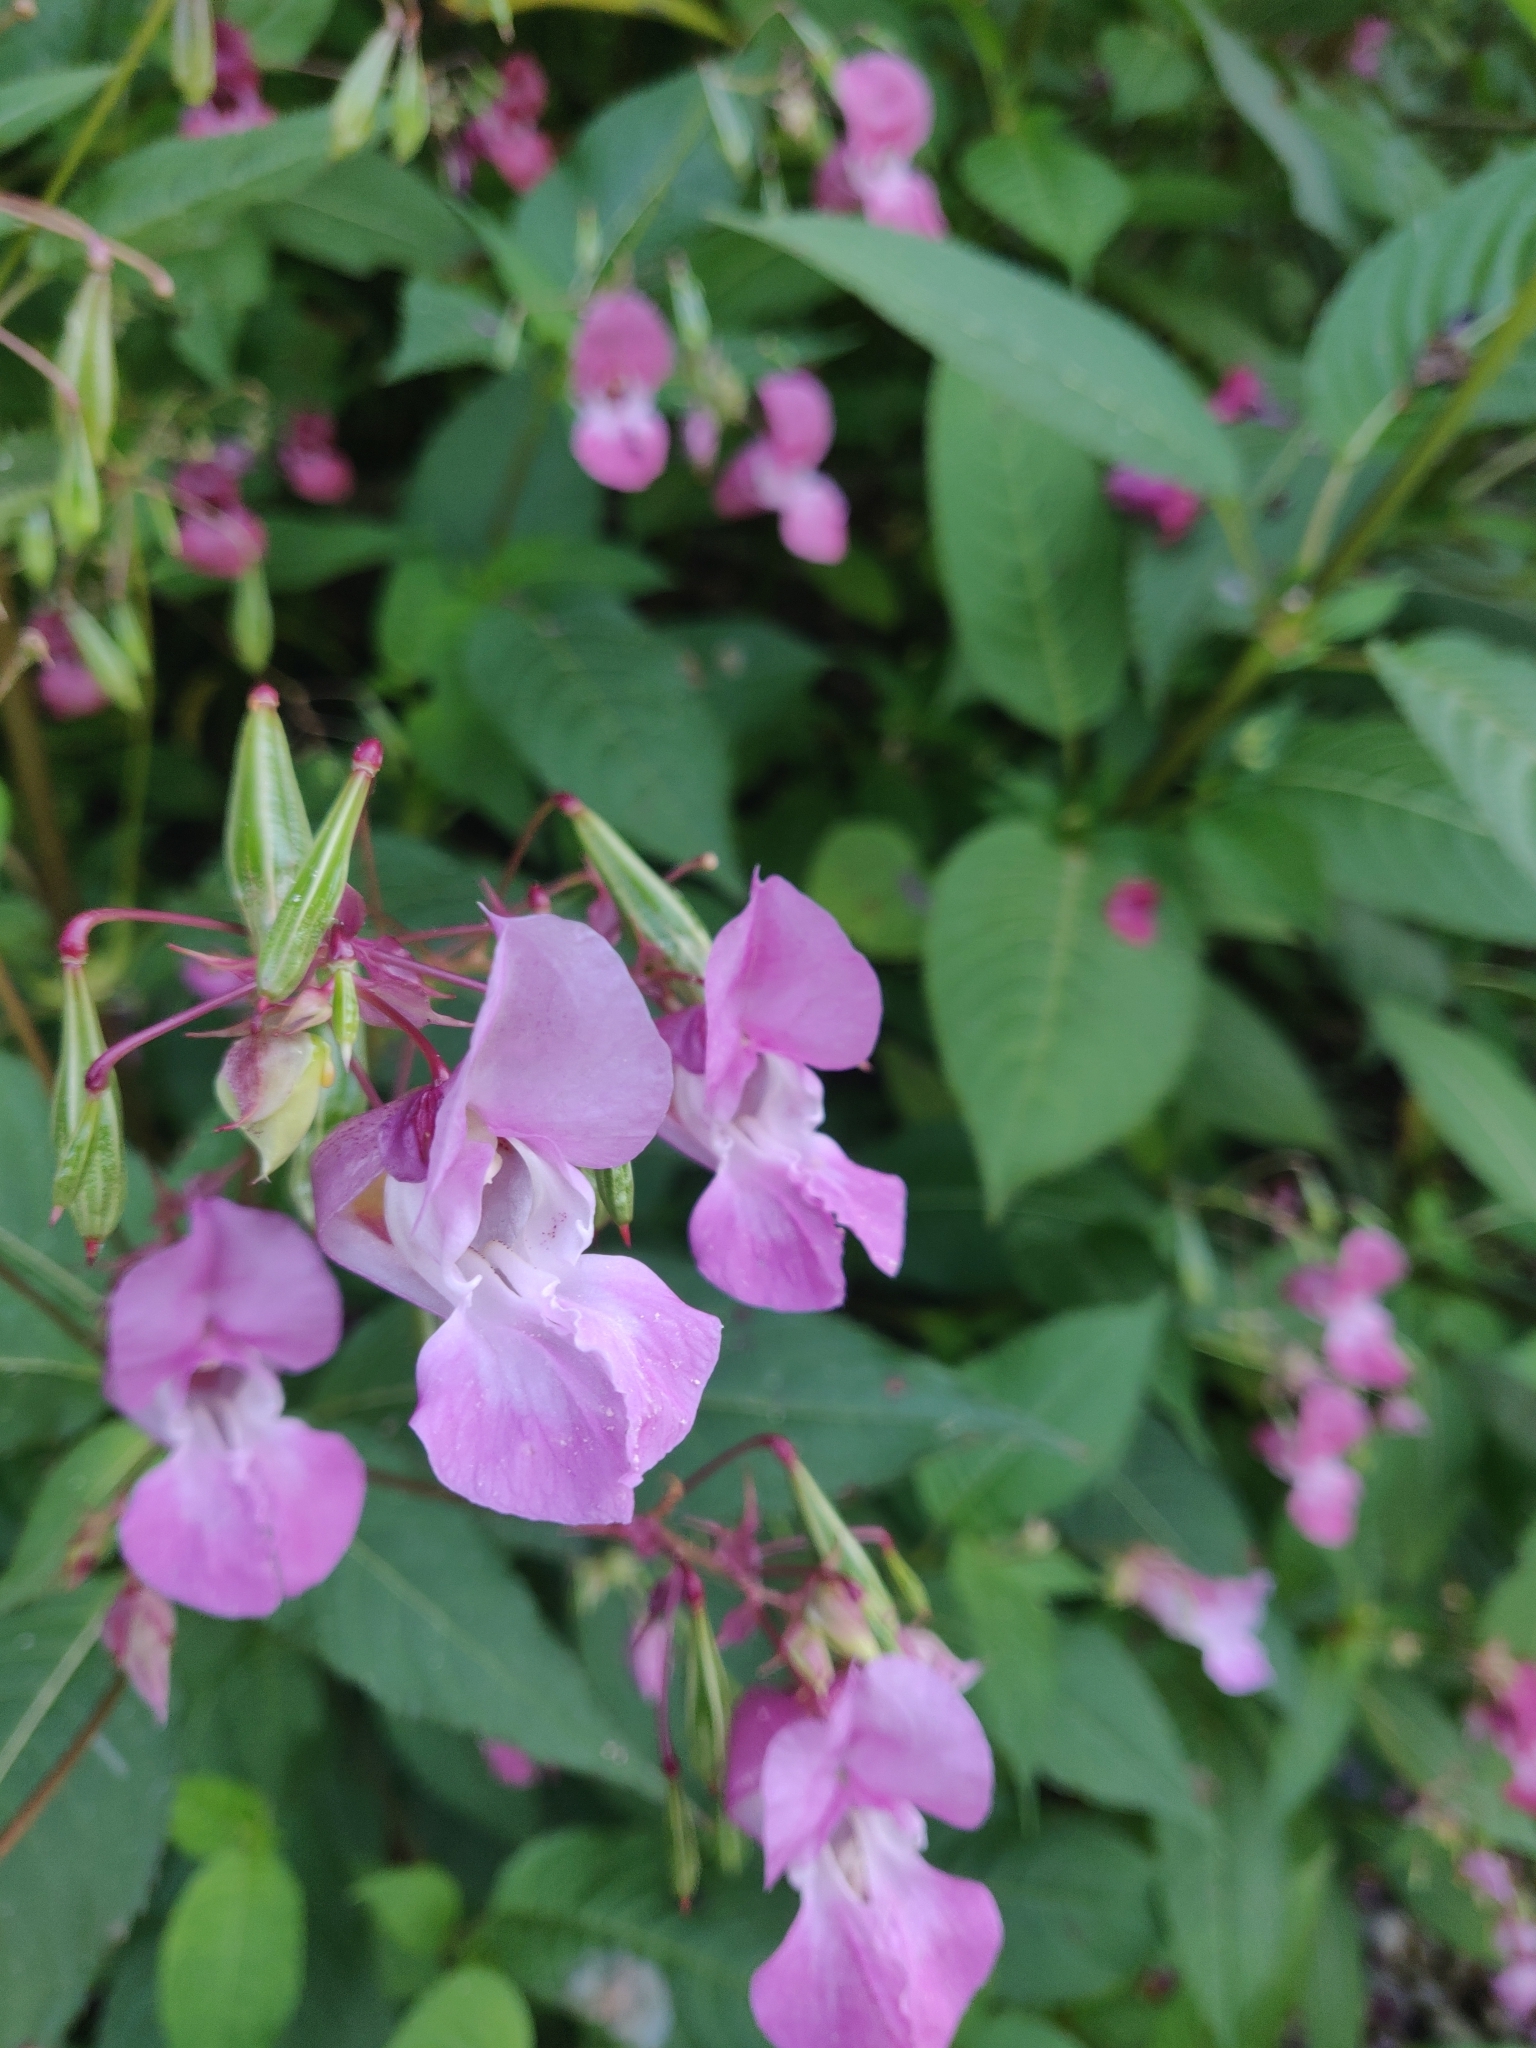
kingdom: Plantae
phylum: Tracheophyta
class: Magnoliopsida
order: Ericales
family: Balsaminaceae
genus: Impatiens
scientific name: Impatiens glandulifera
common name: Himalayan balsam
